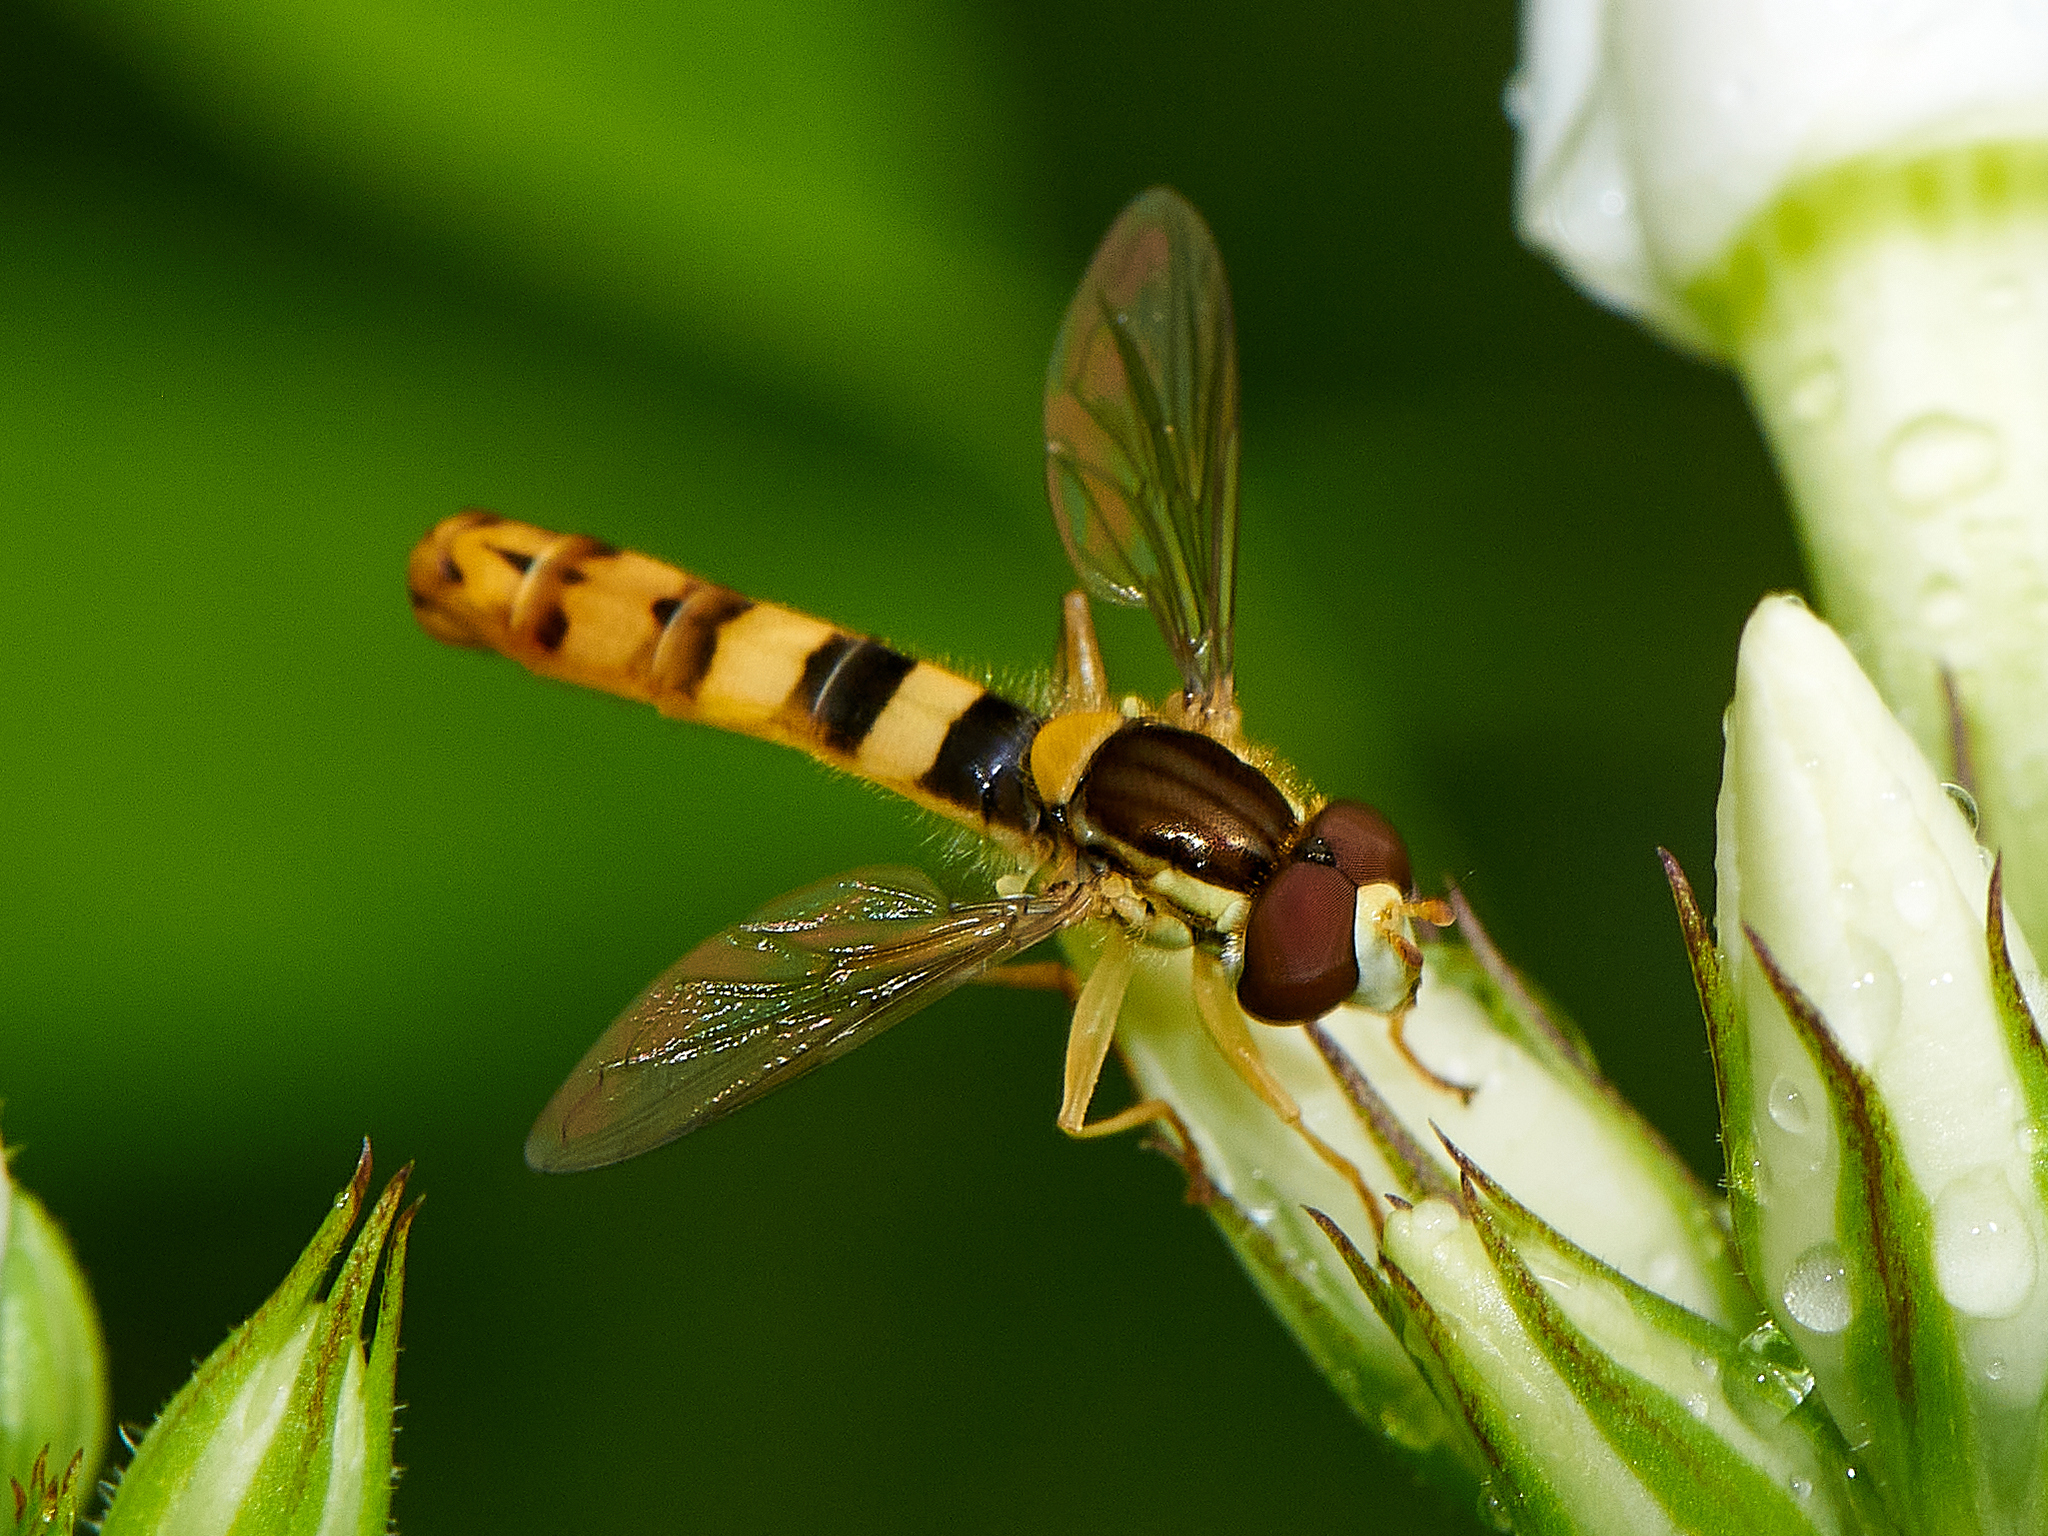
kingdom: Animalia
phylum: Arthropoda
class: Insecta
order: Diptera
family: Syrphidae
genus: Sphaerophoria
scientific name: Sphaerophoria scripta
